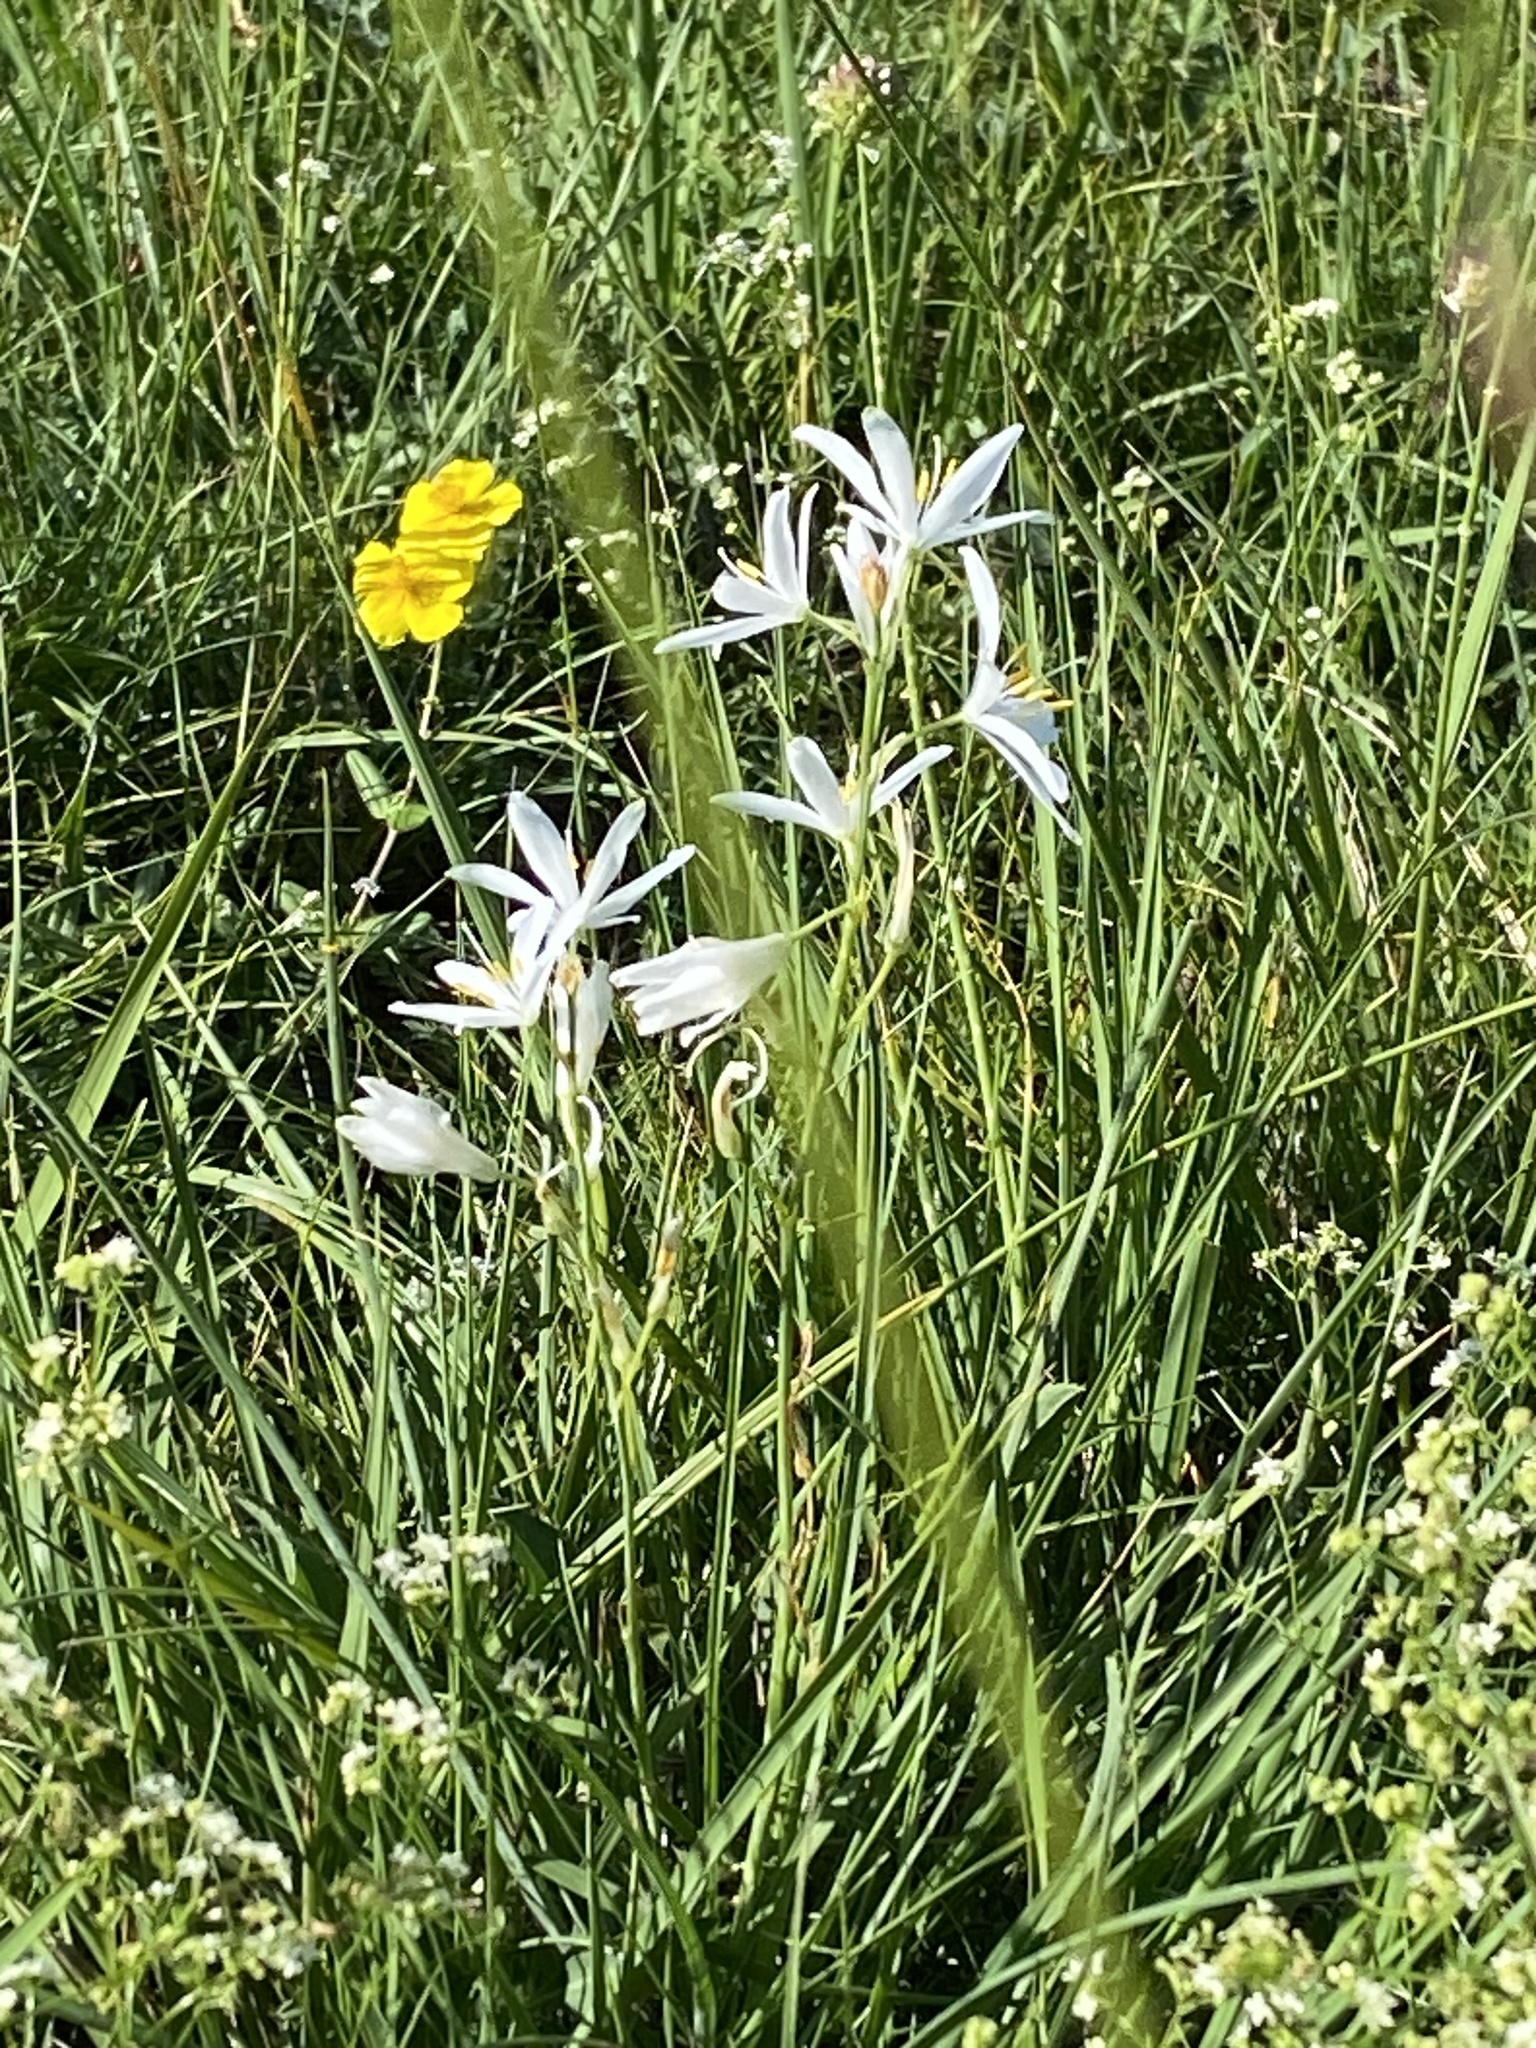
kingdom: Plantae
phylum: Tracheophyta
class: Liliopsida
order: Asparagales
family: Asparagaceae
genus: Anthericum
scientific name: Anthericum liliago
